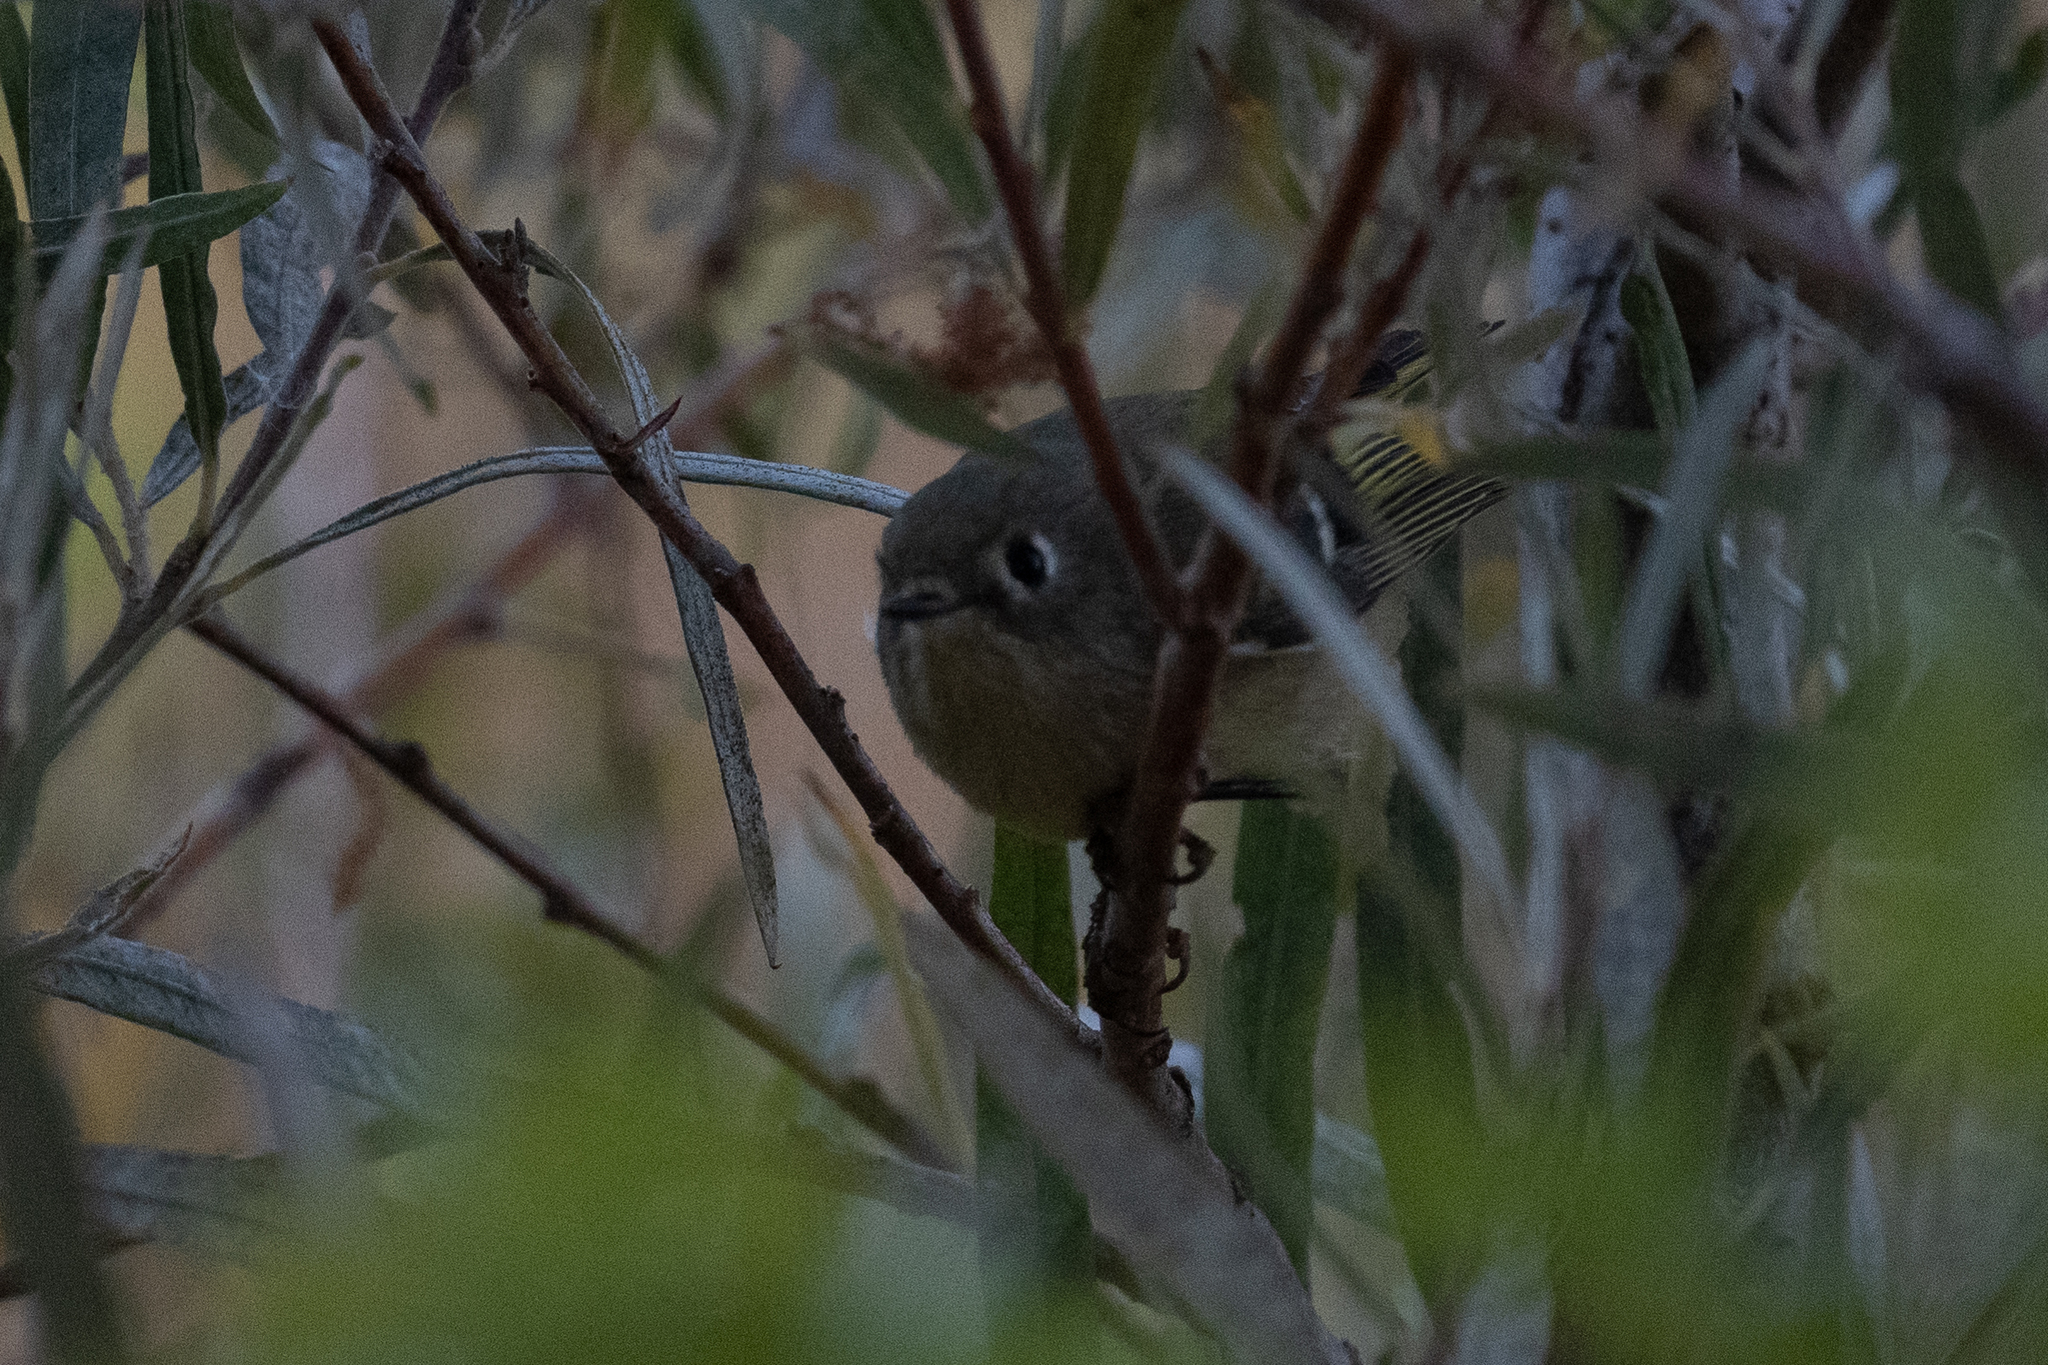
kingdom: Animalia
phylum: Chordata
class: Aves
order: Passeriformes
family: Regulidae
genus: Regulus
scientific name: Regulus calendula
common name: Ruby-crowned kinglet
